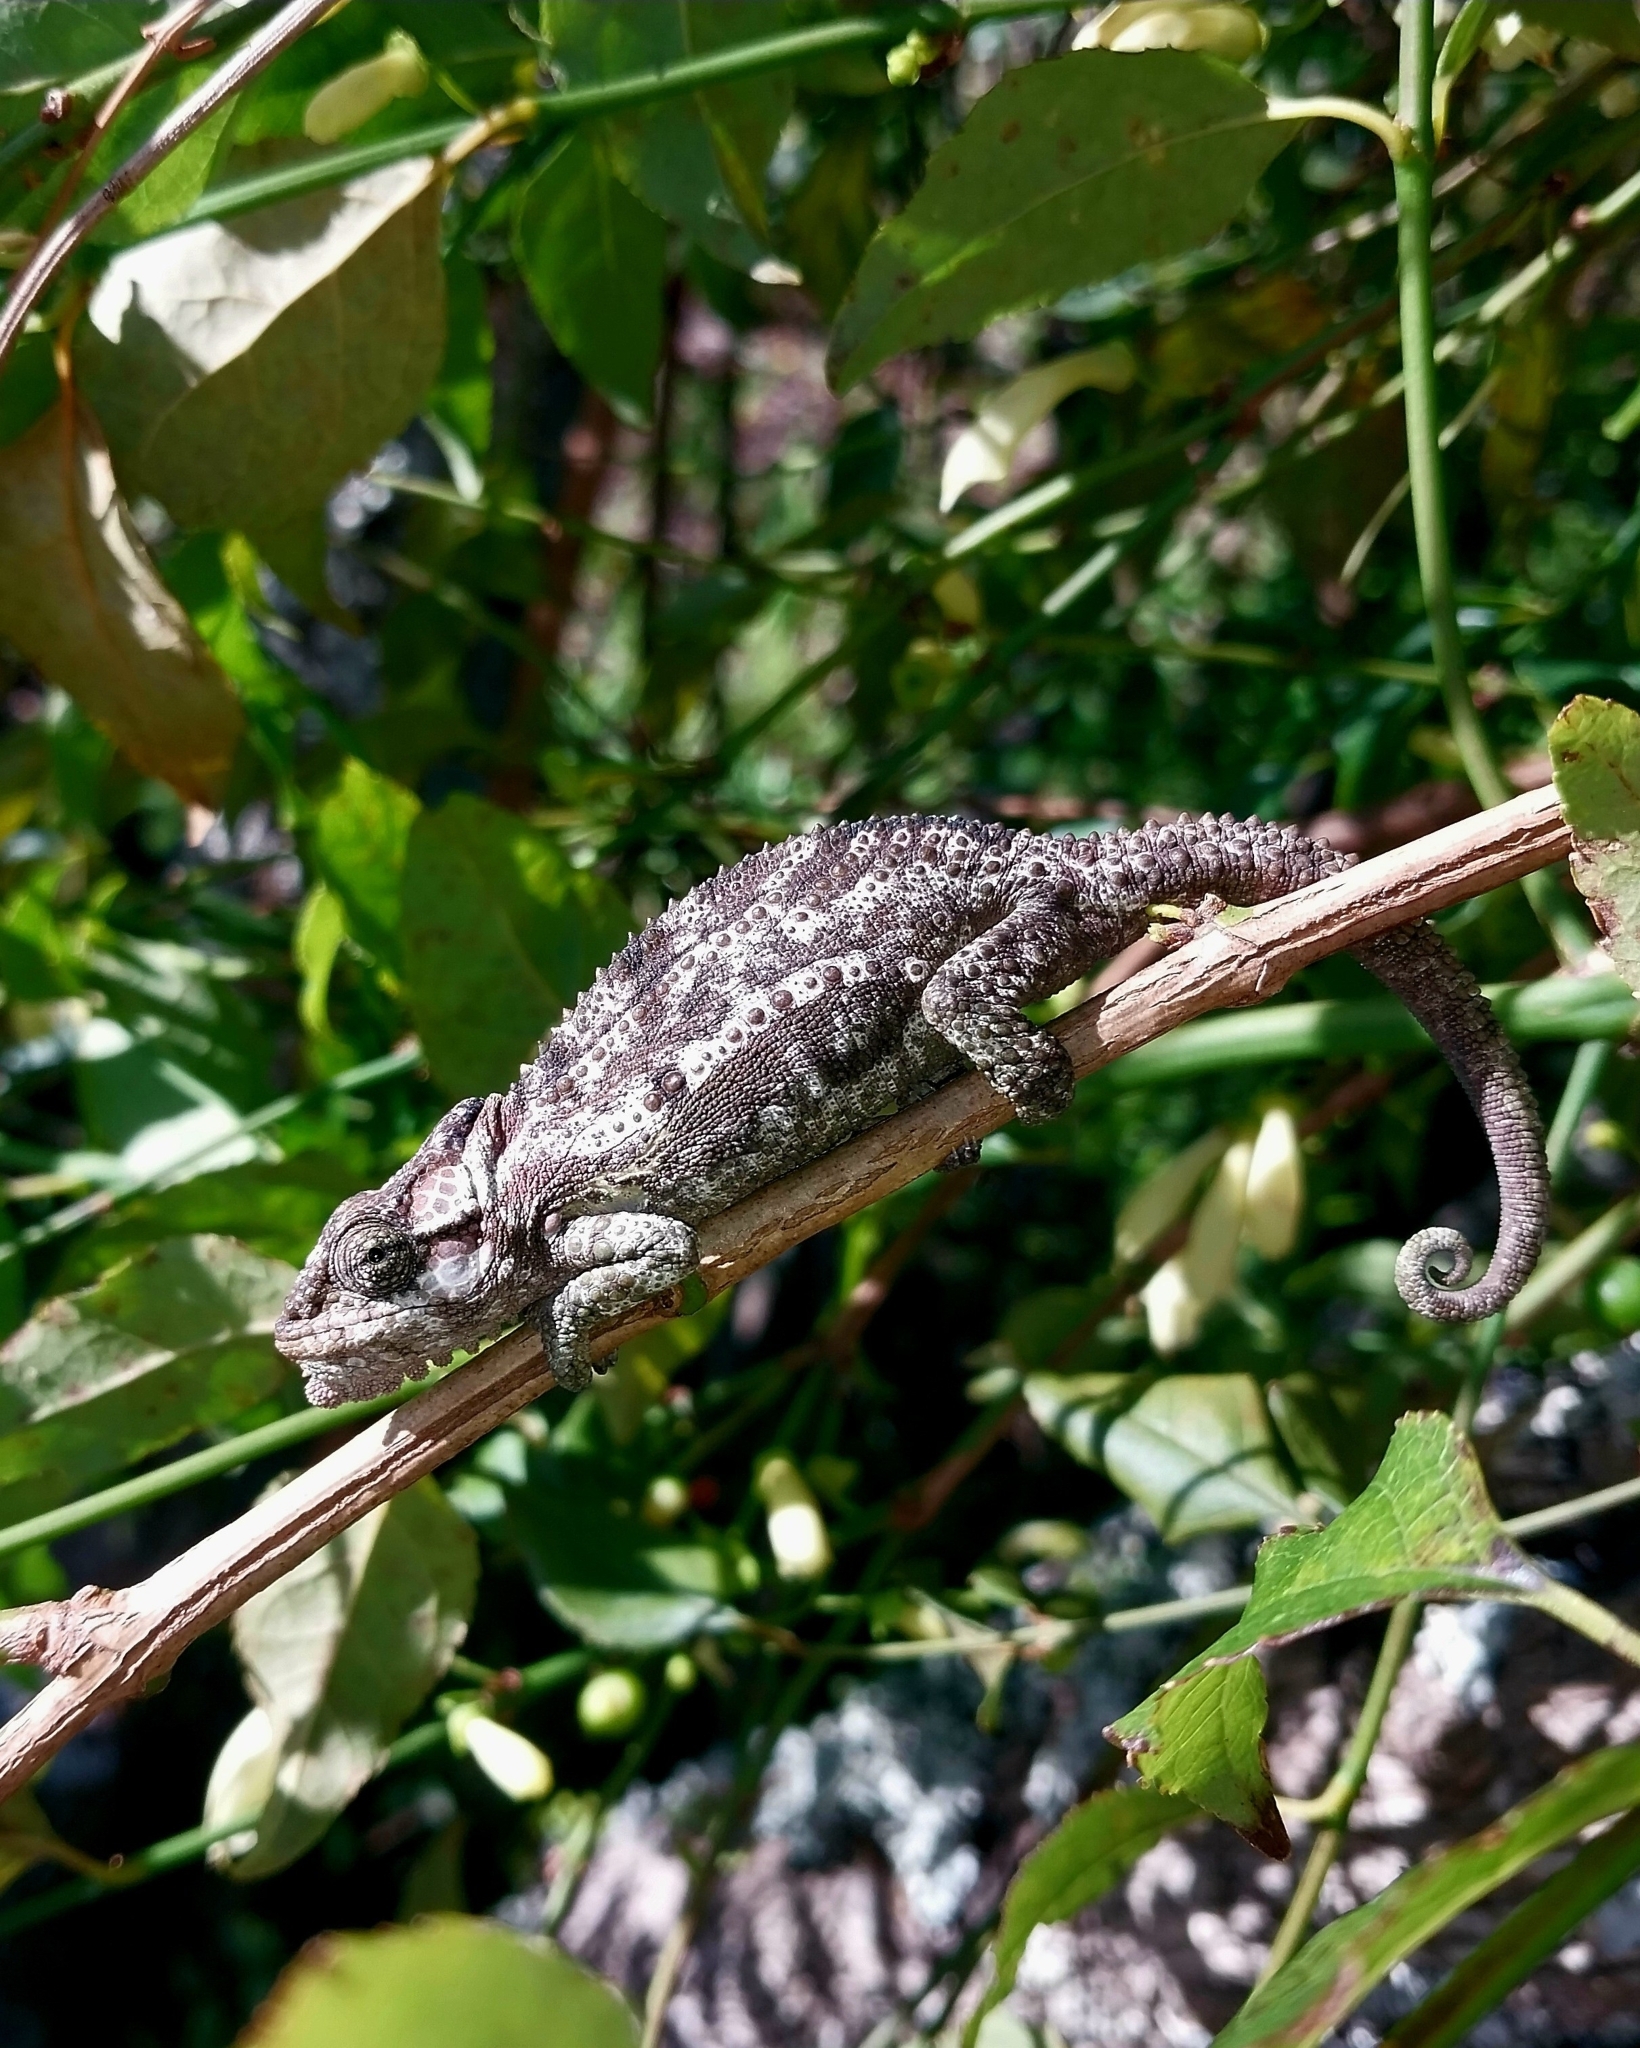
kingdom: Animalia
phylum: Chordata
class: Squamata
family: Chamaeleonidae
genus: Bradypodion
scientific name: Bradypodion damaranum
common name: Knysna dwarf chameleon
